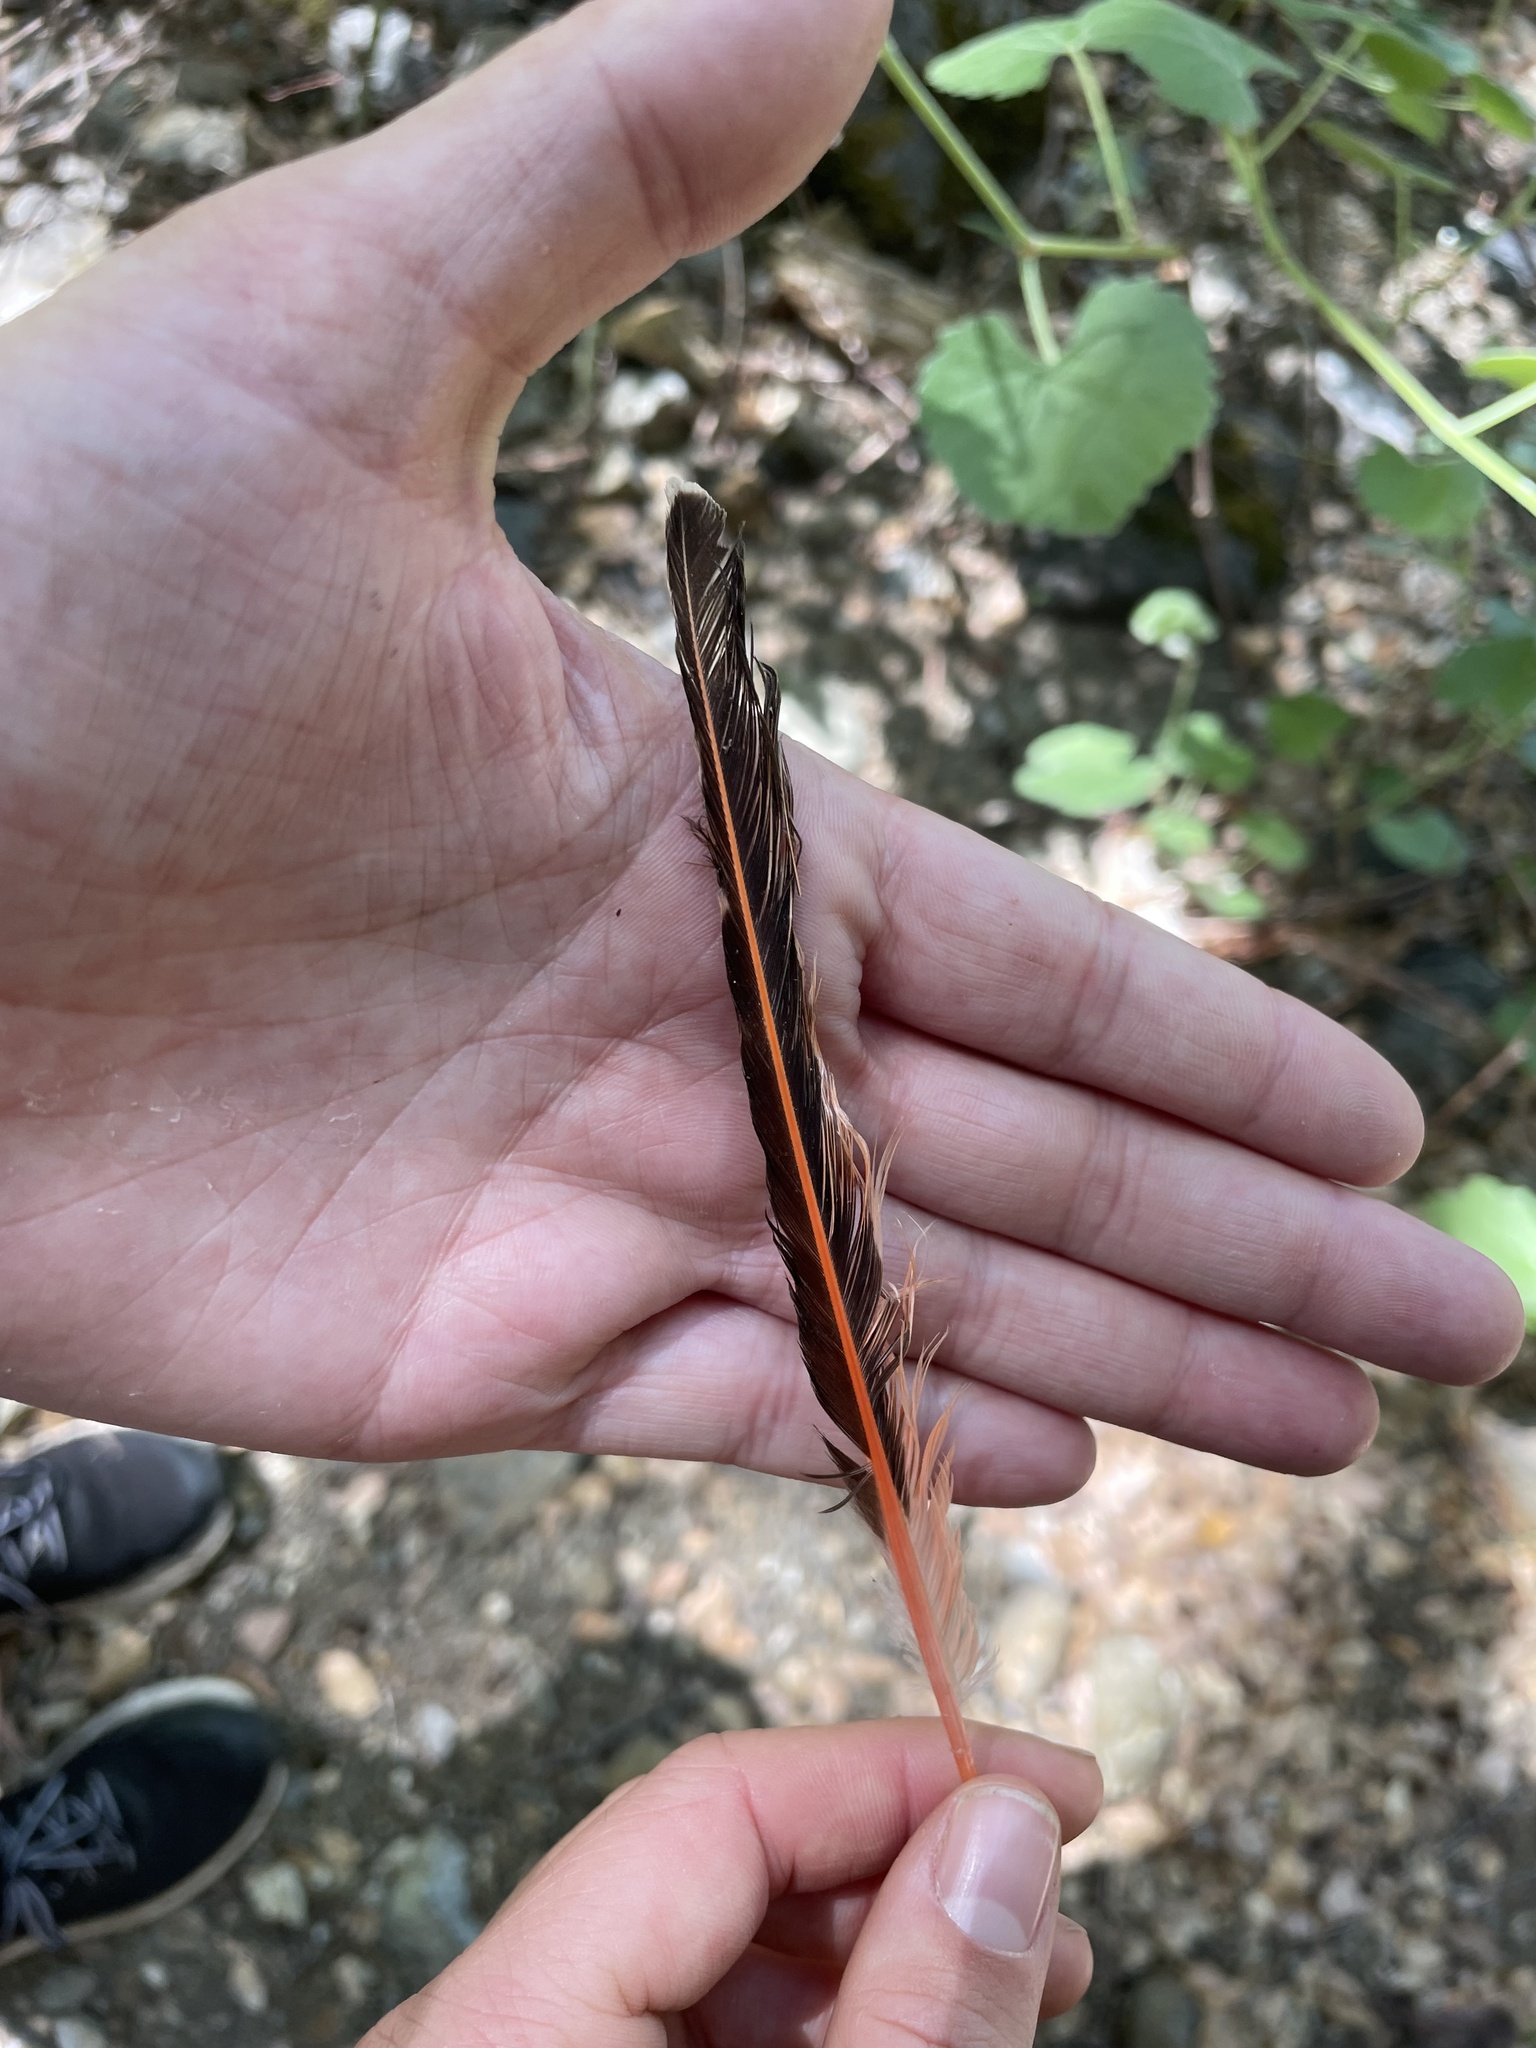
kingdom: Animalia
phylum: Chordata
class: Aves
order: Piciformes
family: Picidae
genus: Colaptes
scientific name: Colaptes auratus
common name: Northern flicker
